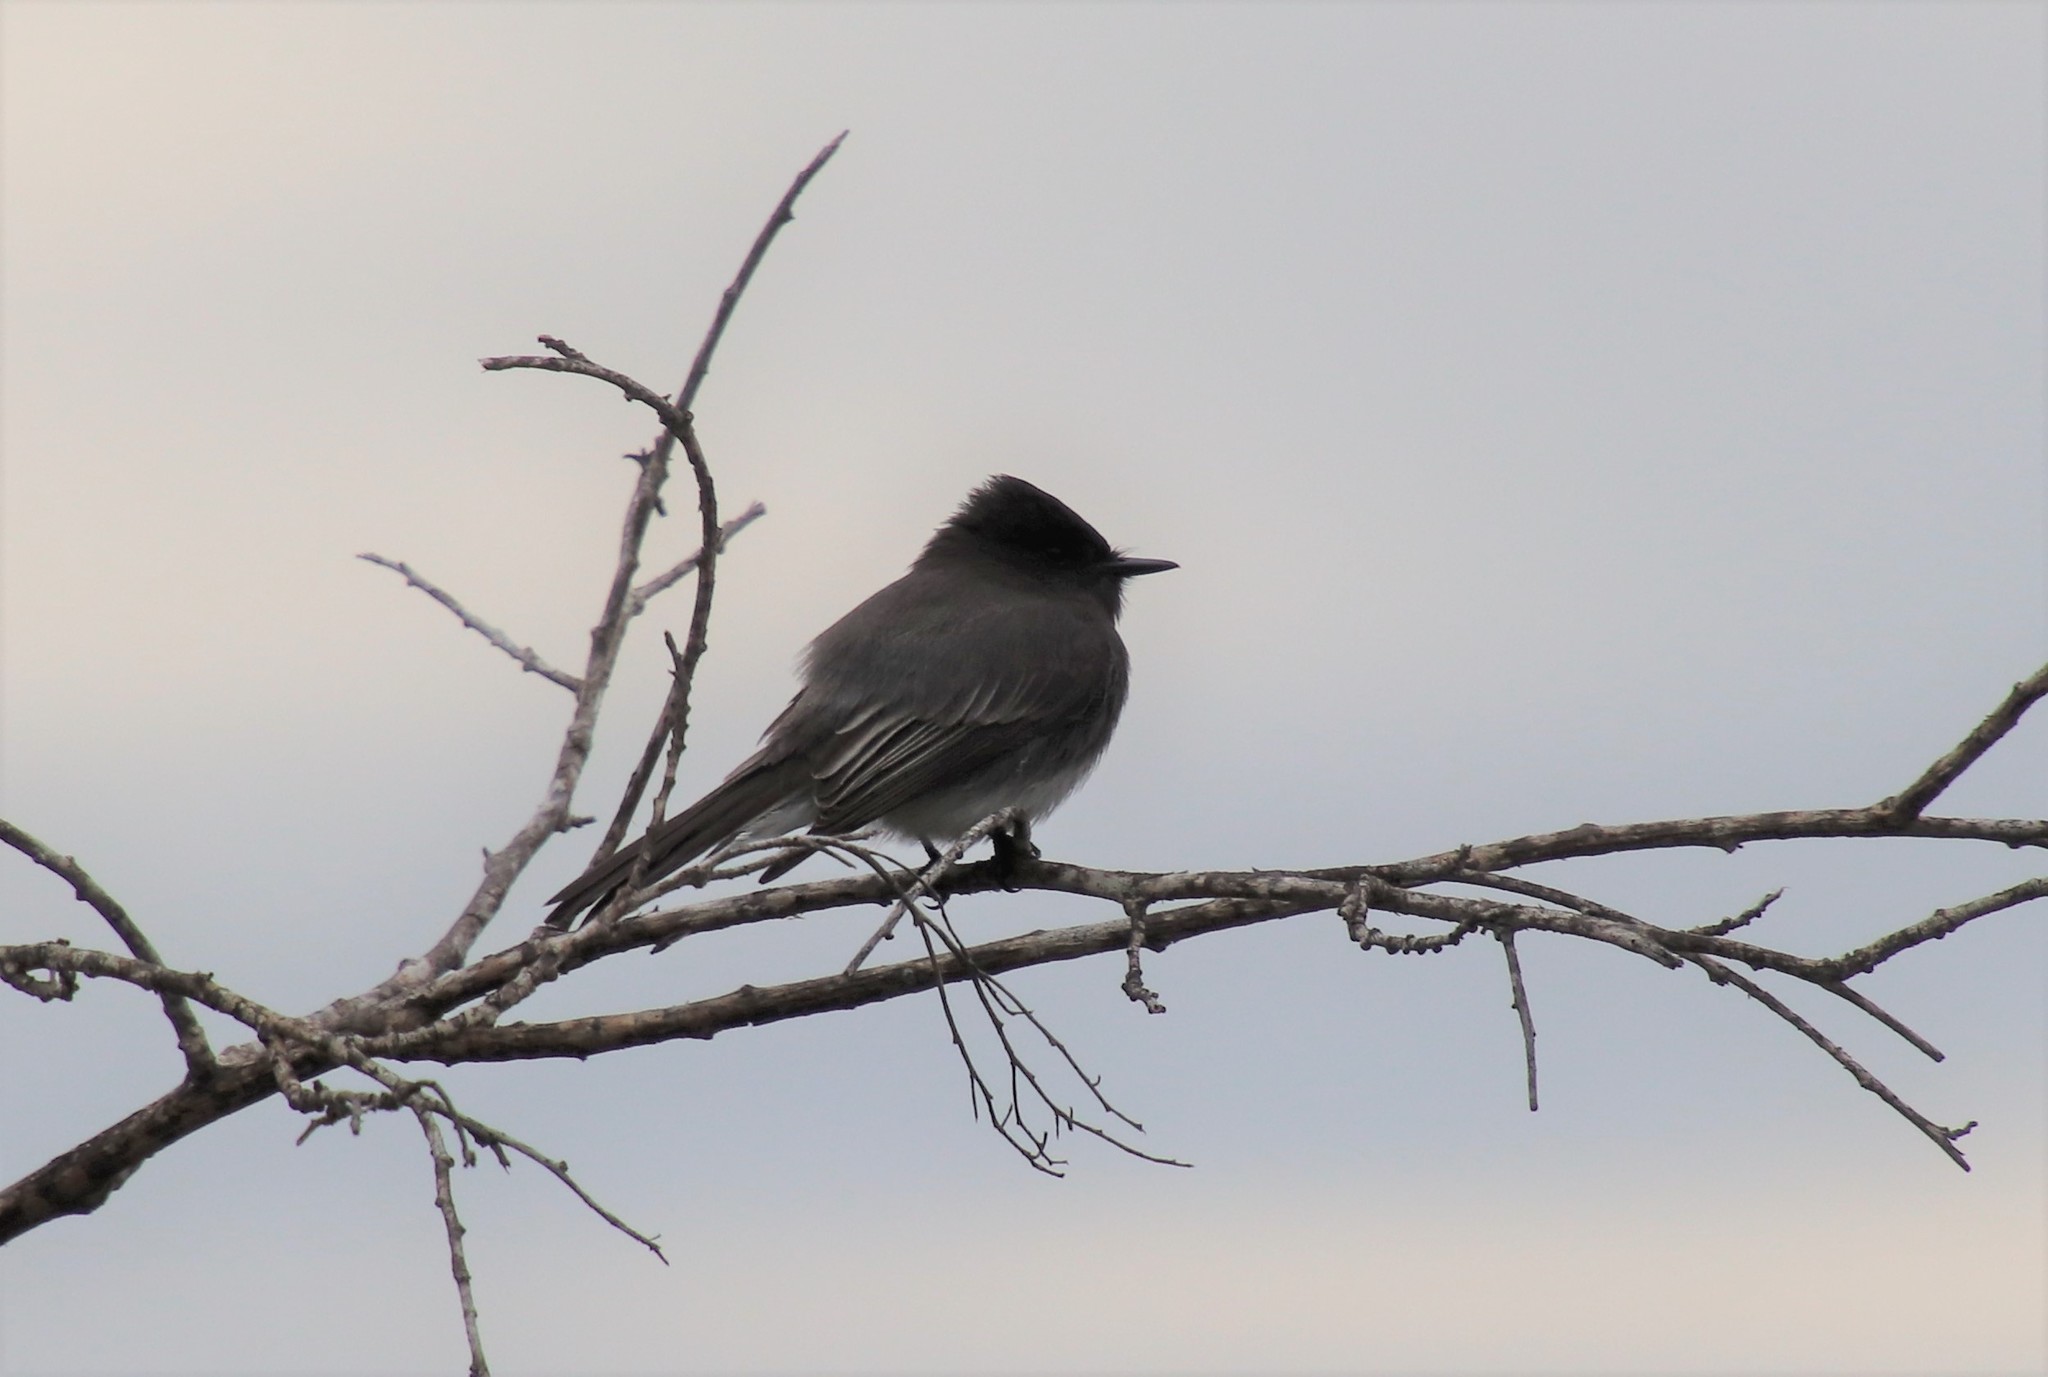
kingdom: Animalia
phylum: Chordata
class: Aves
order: Passeriformes
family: Tyrannidae
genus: Sayornis
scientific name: Sayornis nigricans
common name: Black phoebe
